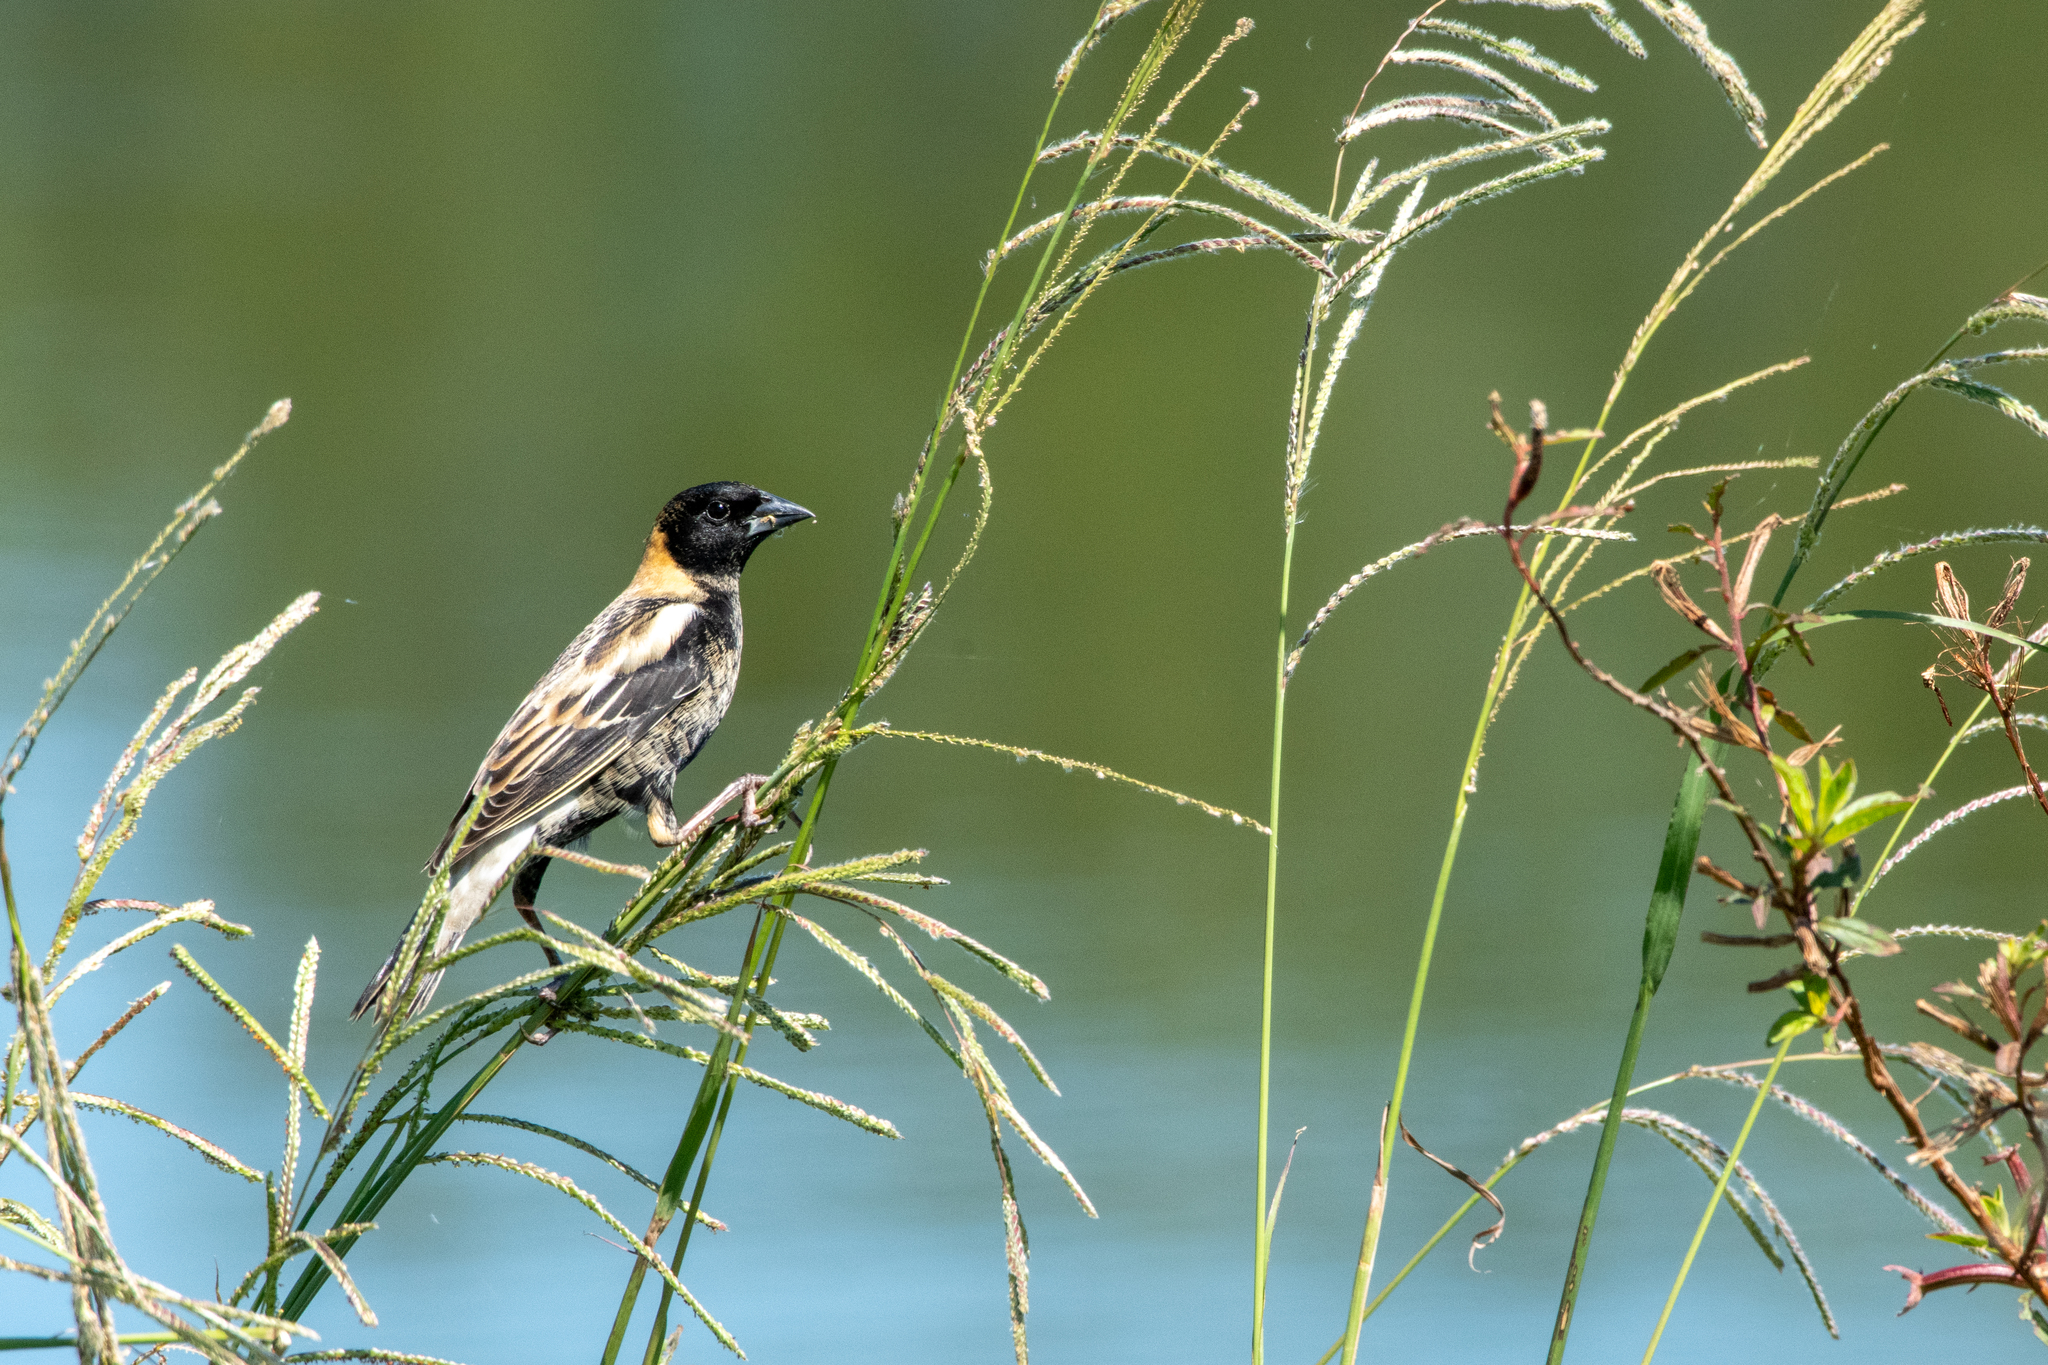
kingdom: Animalia
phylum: Chordata
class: Aves
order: Passeriformes
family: Icteridae
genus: Dolichonyx
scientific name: Dolichonyx oryzivorus
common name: Bobolink
